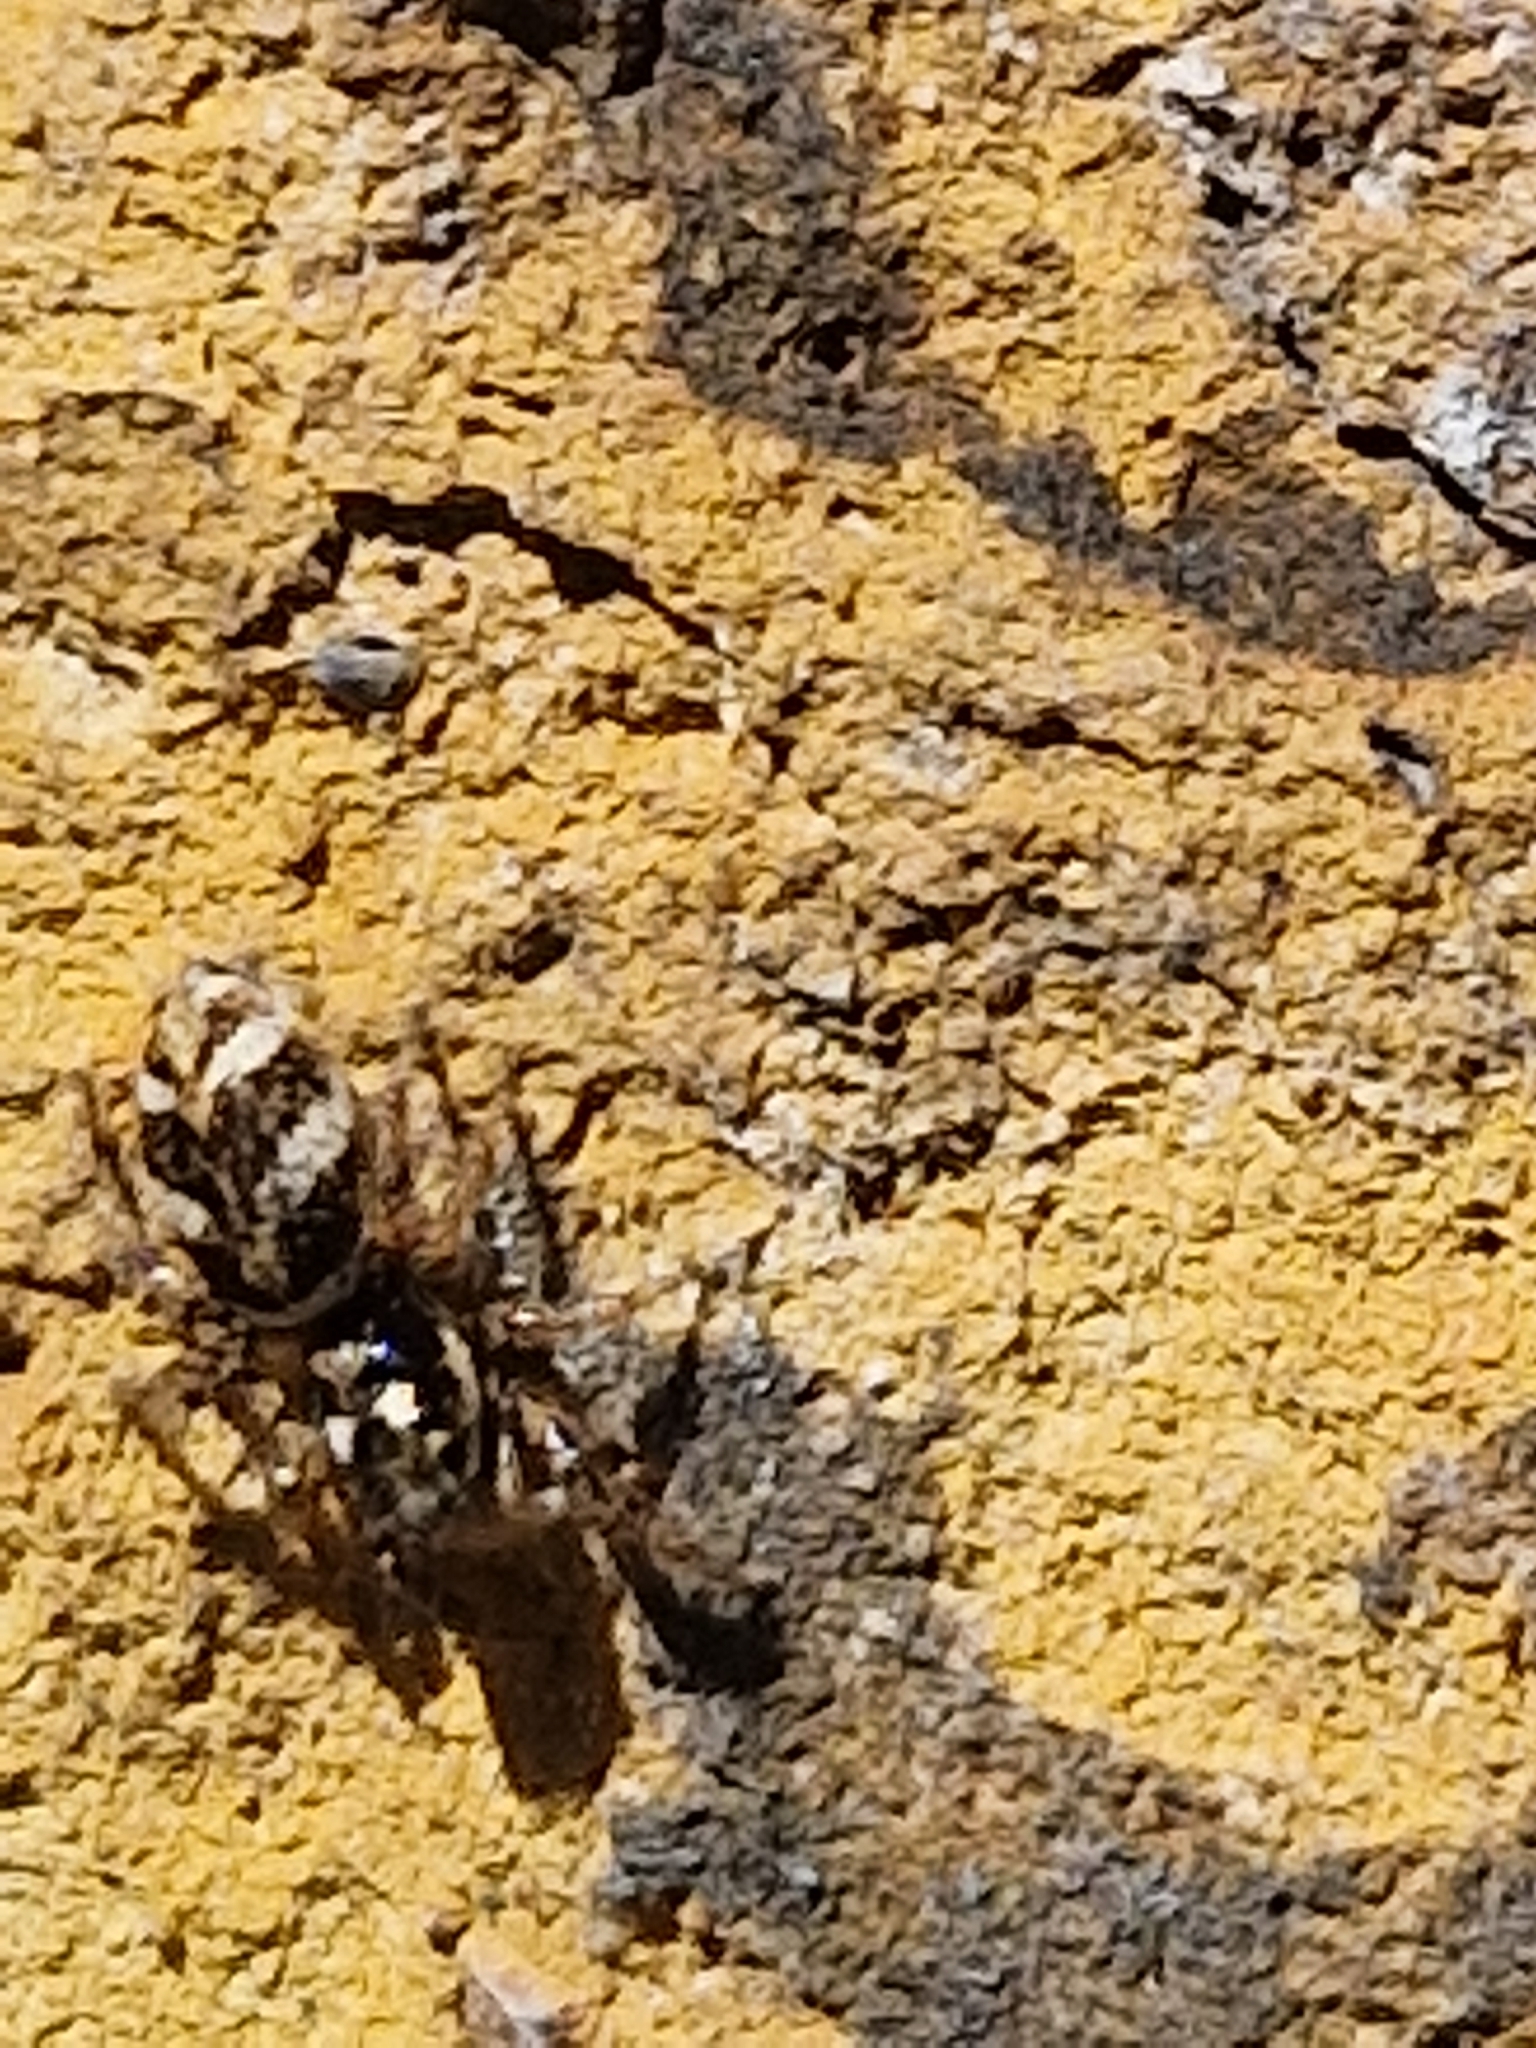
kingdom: Animalia
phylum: Arthropoda
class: Arachnida
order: Araneae
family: Salticidae
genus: Salticus
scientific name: Salticus scenicus
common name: Zebra jumper
